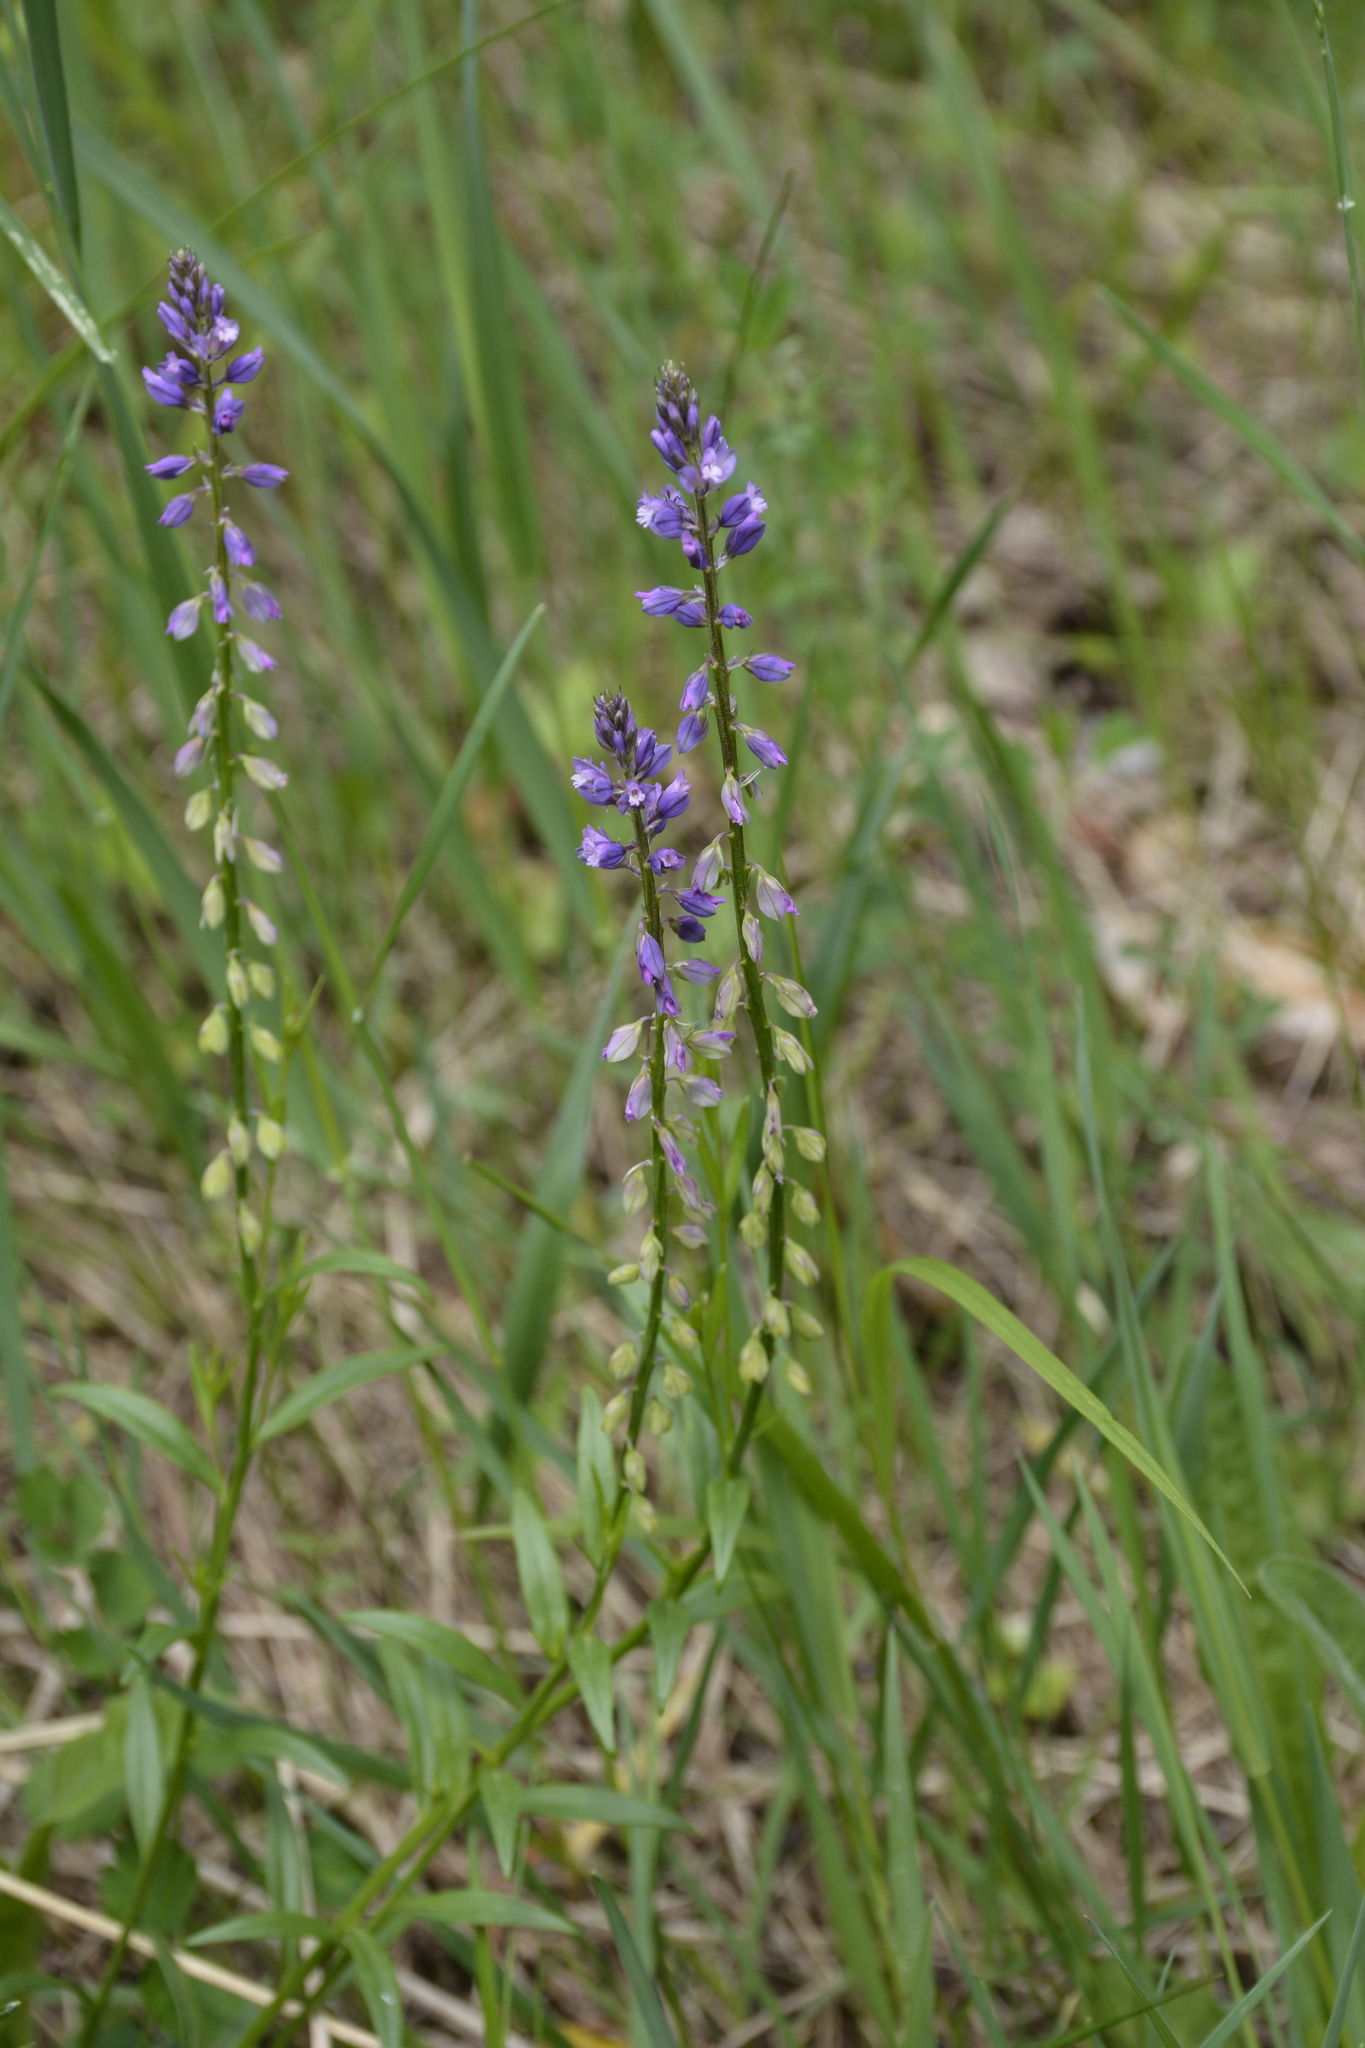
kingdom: Plantae
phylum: Tracheophyta
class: Magnoliopsida
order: Fabales
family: Polygalaceae
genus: Polygala
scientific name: Polygala comosa
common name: Tufted milkwort
